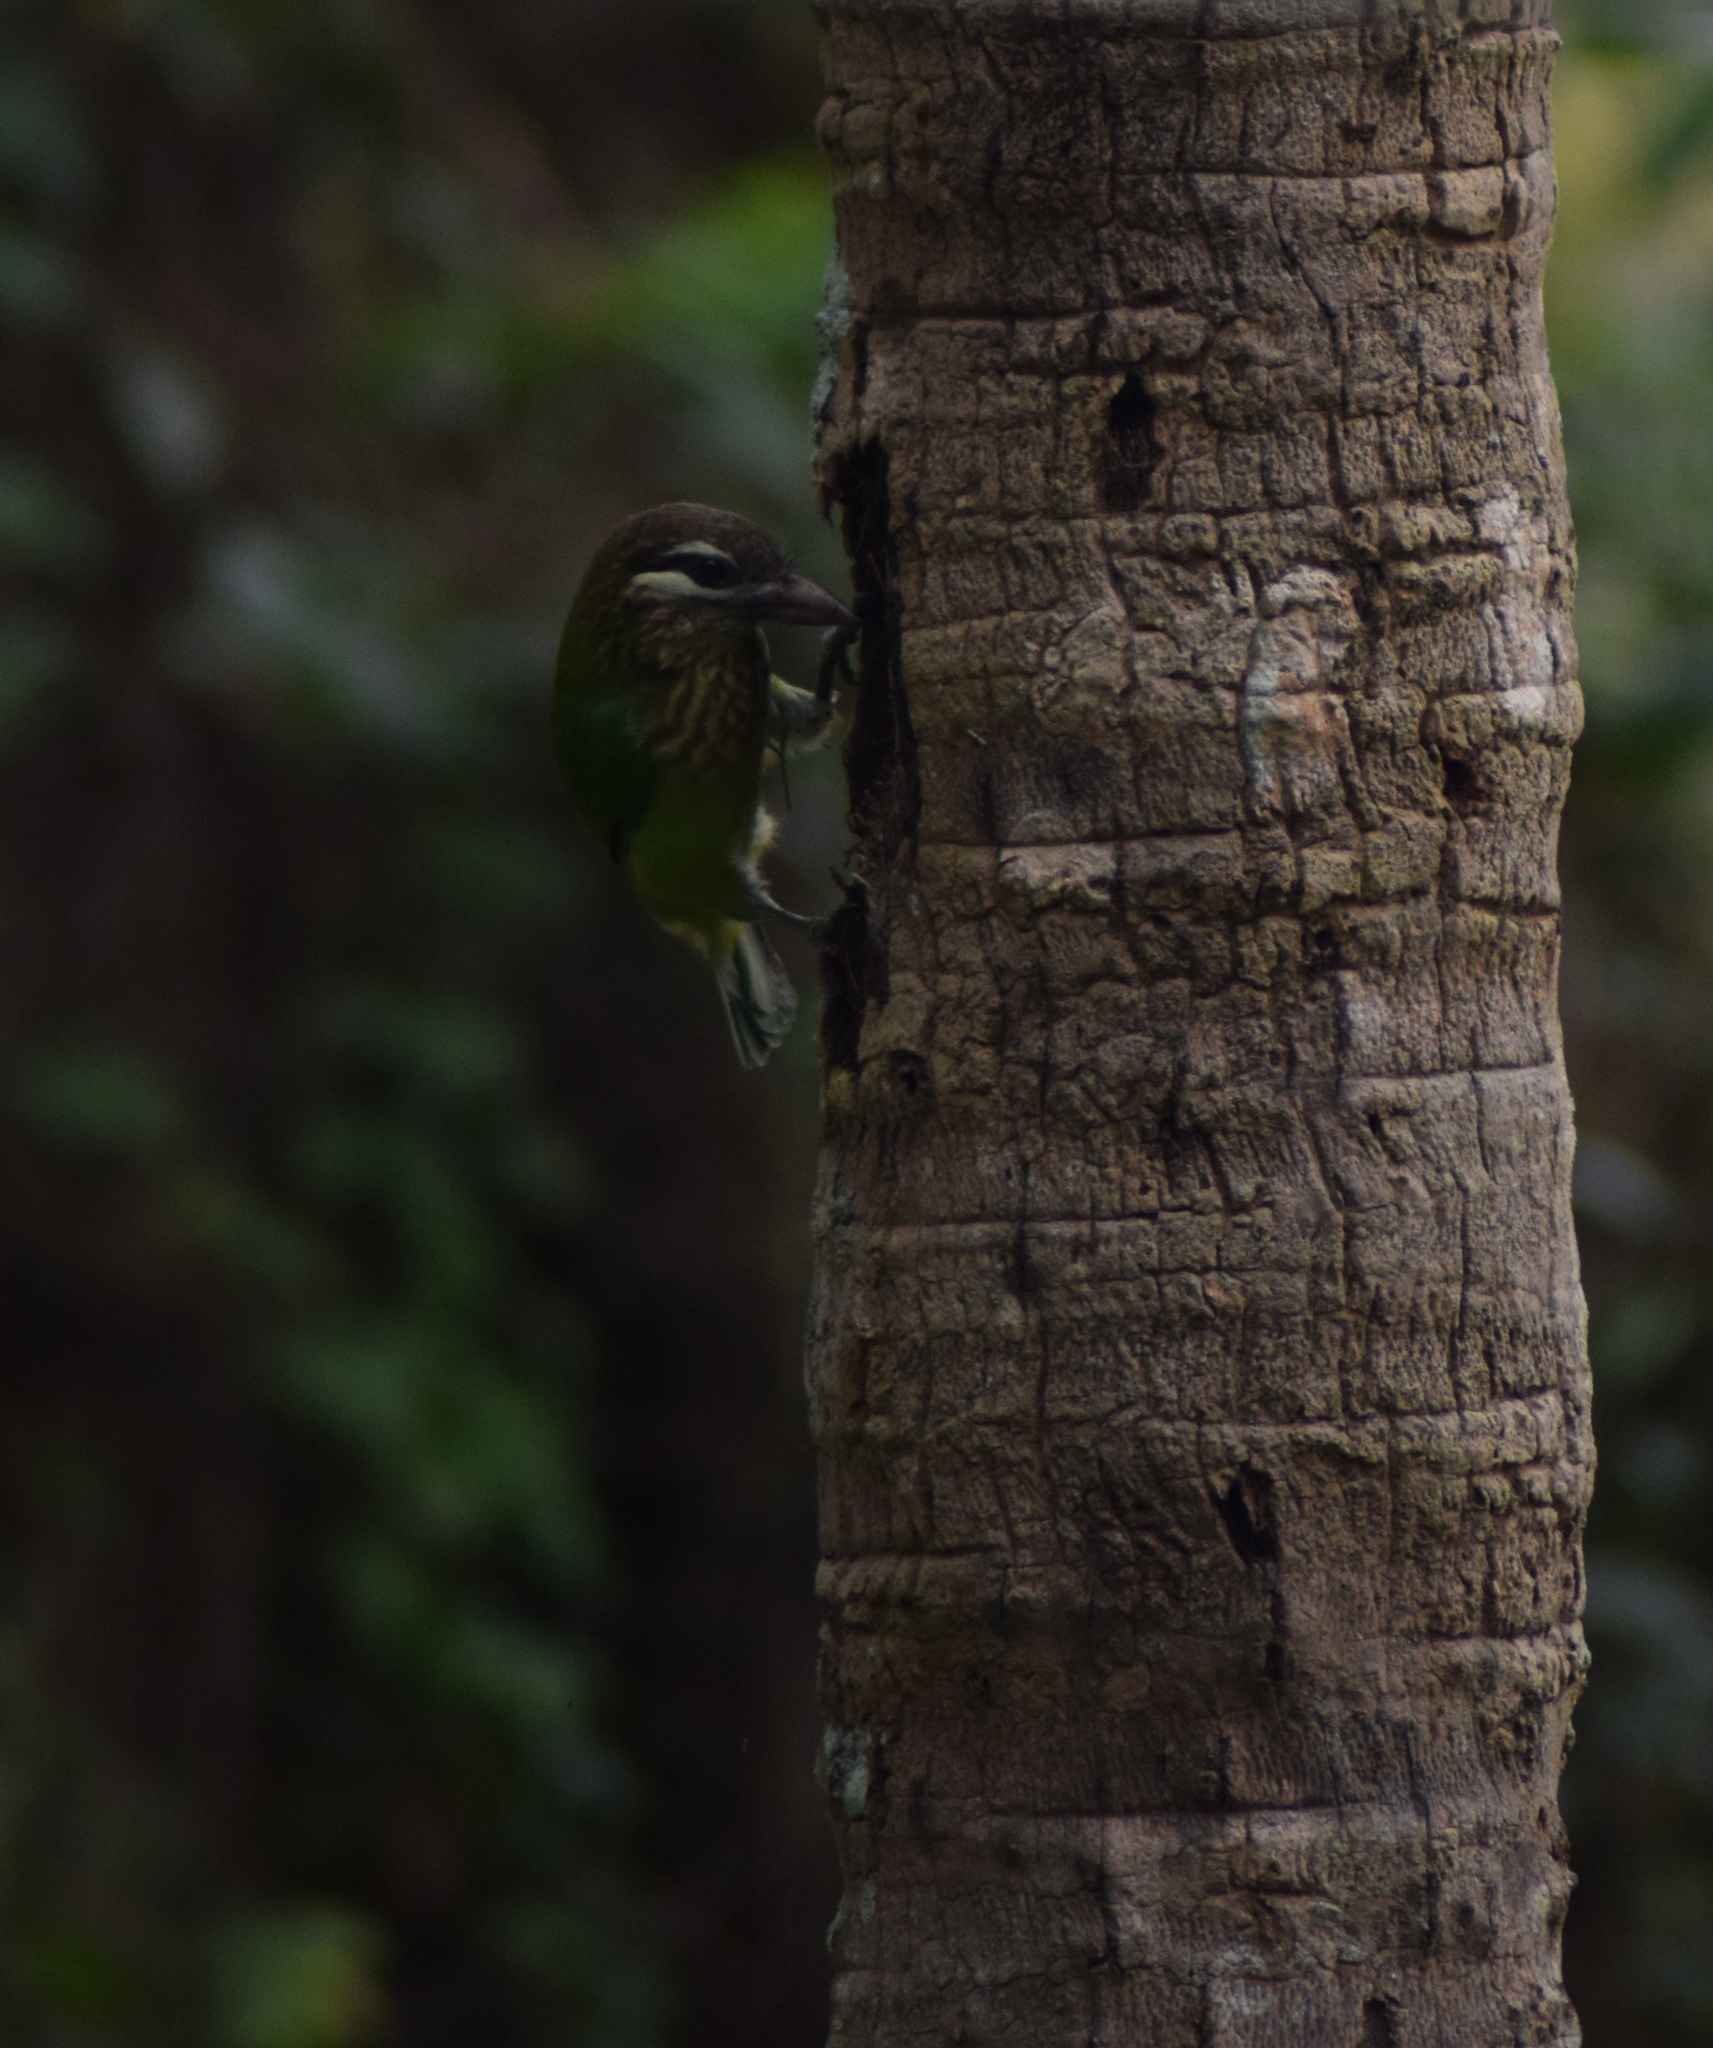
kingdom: Animalia
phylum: Chordata
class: Aves
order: Piciformes
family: Megalaimidae
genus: Psilopogon
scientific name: Psilopogon viridis
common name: White-cheeked barbet
